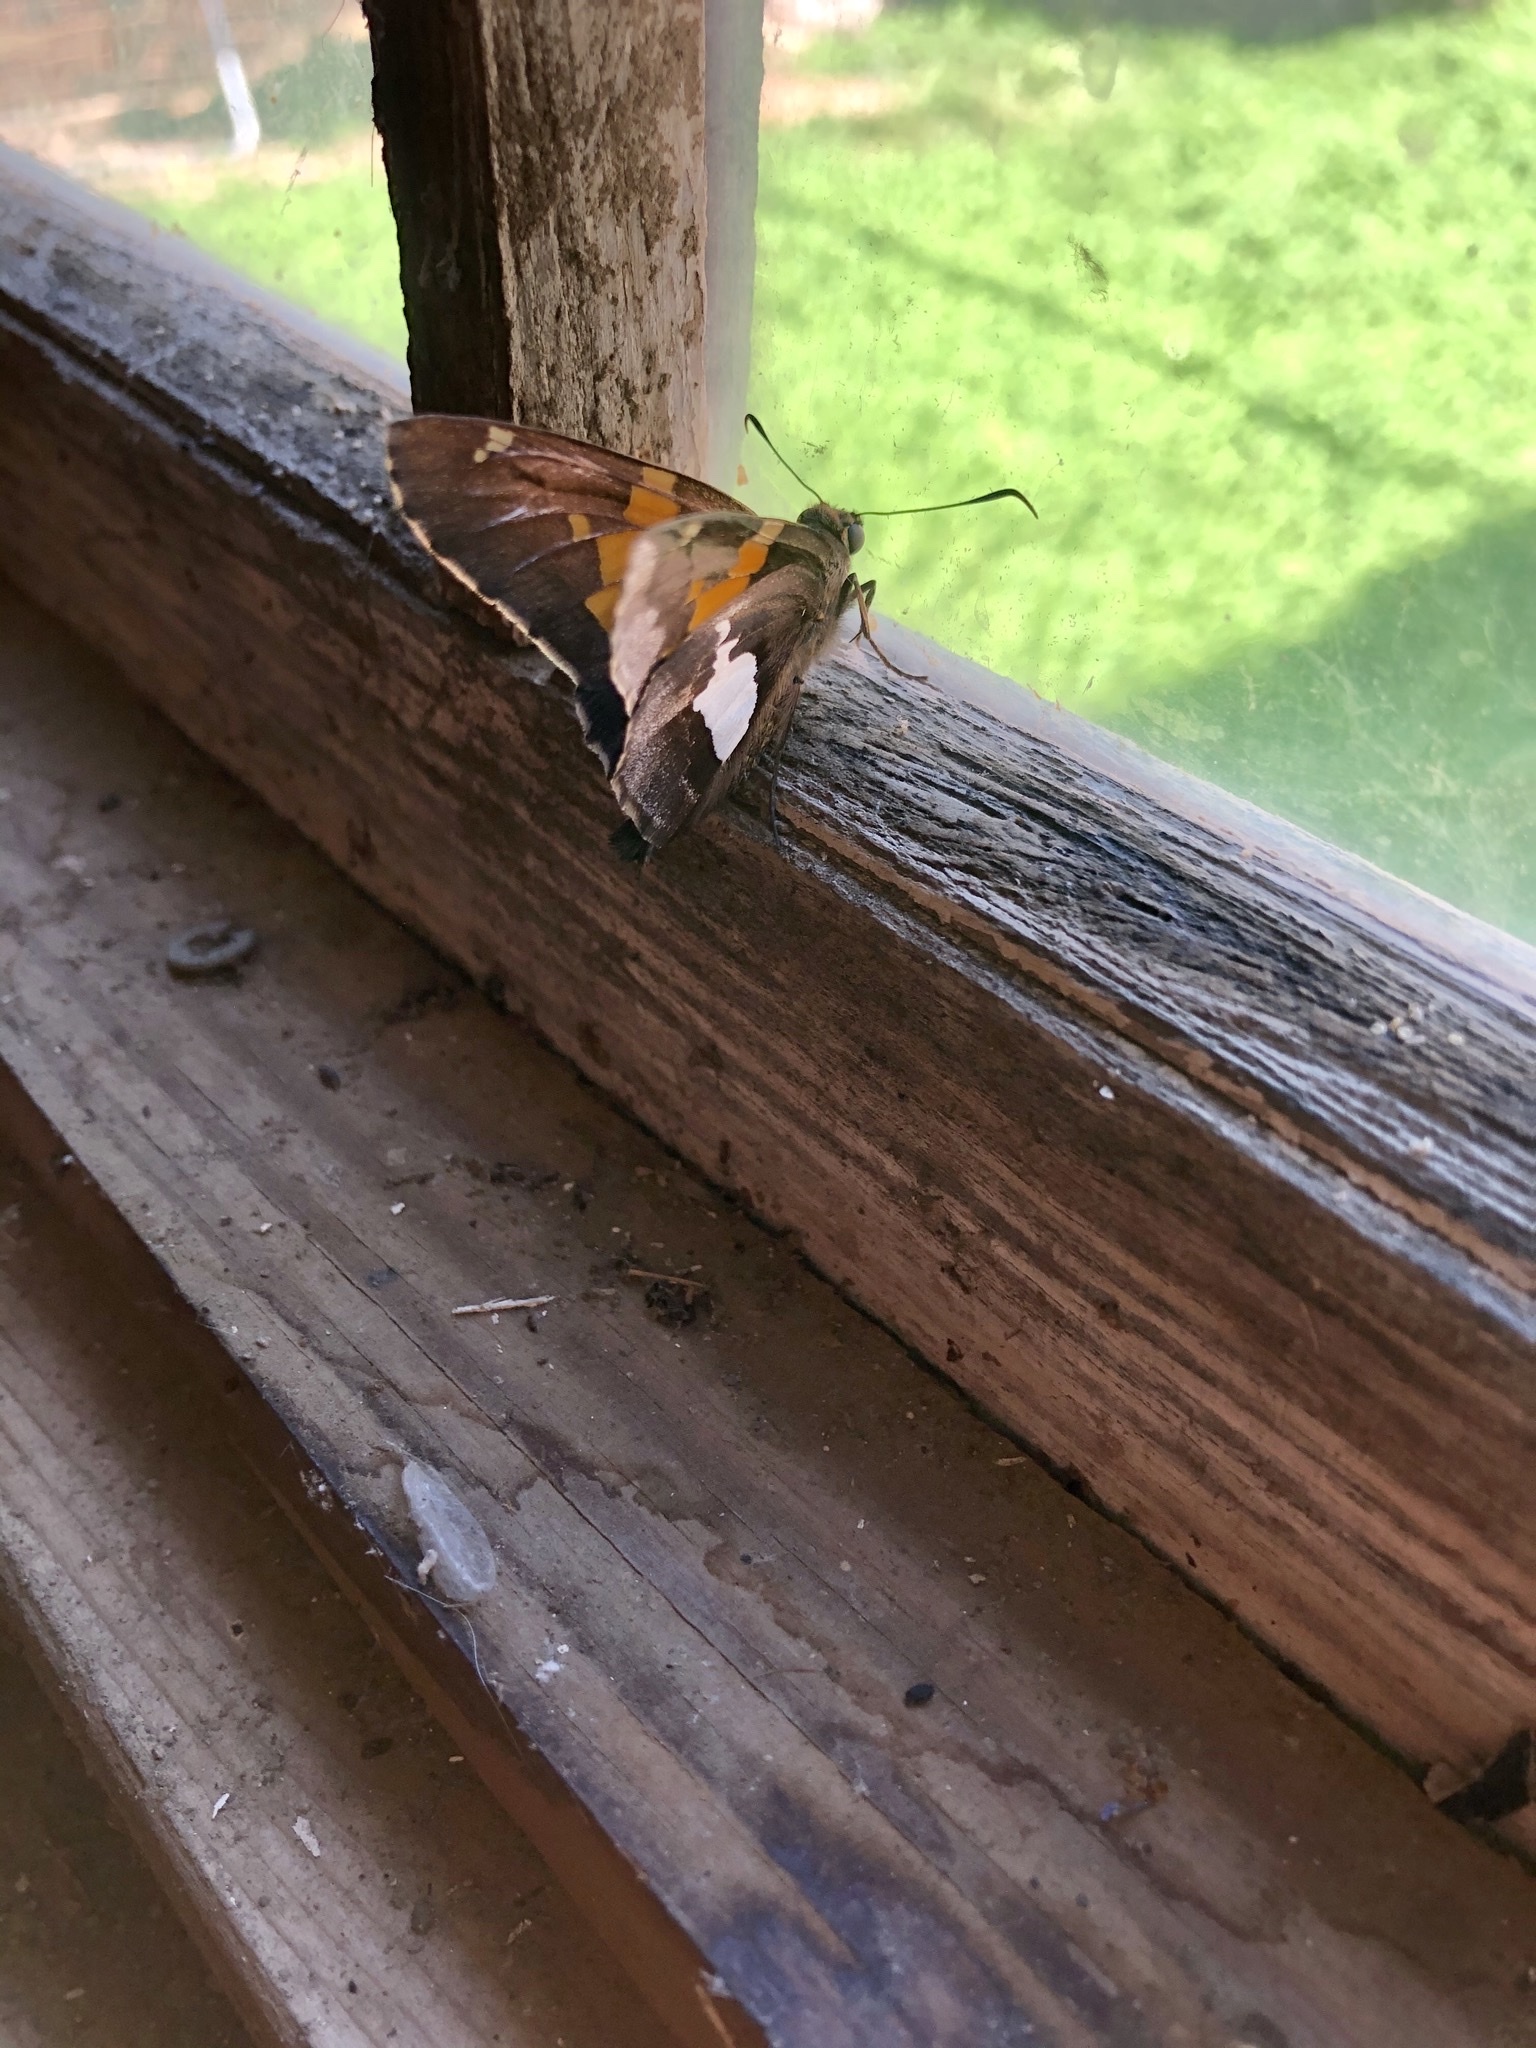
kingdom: Animalia
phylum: Arthropoda
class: Insecta
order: Lepidoptera
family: Hesperiidae
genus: Epargyreus
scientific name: Epargyreus clarus
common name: Silver-spotted skipper
